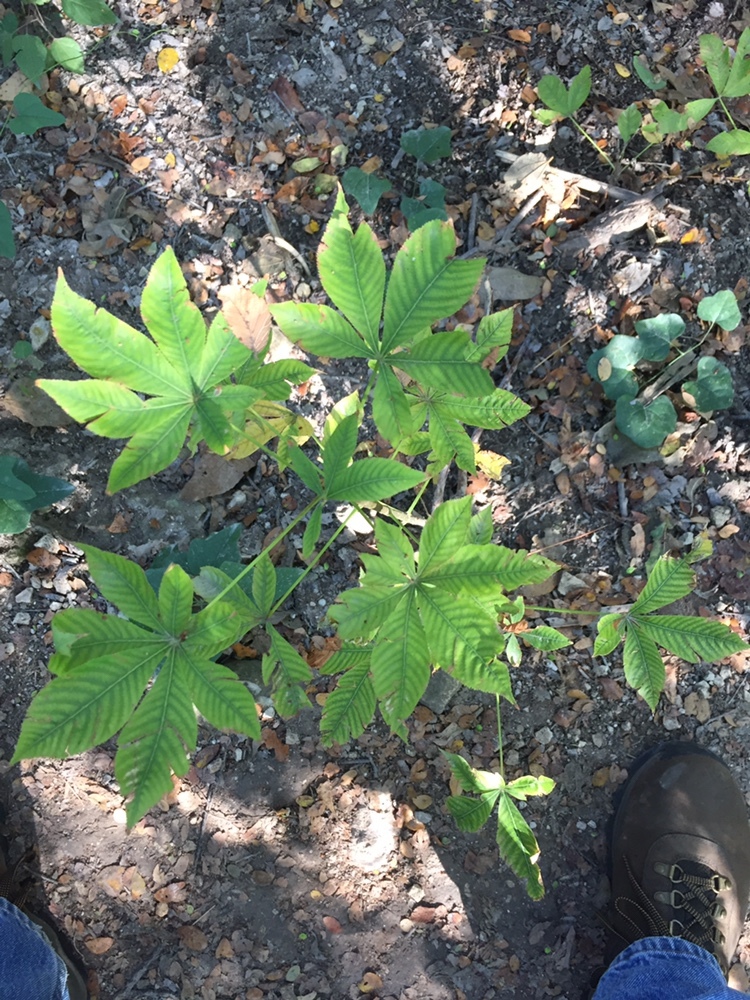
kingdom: Plantae
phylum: Tracheophyta
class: Magnoliopsida
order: Sapindales
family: Sapindaceae
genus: Aesculus
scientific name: Aesculus glabra
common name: Ohio buckeye
